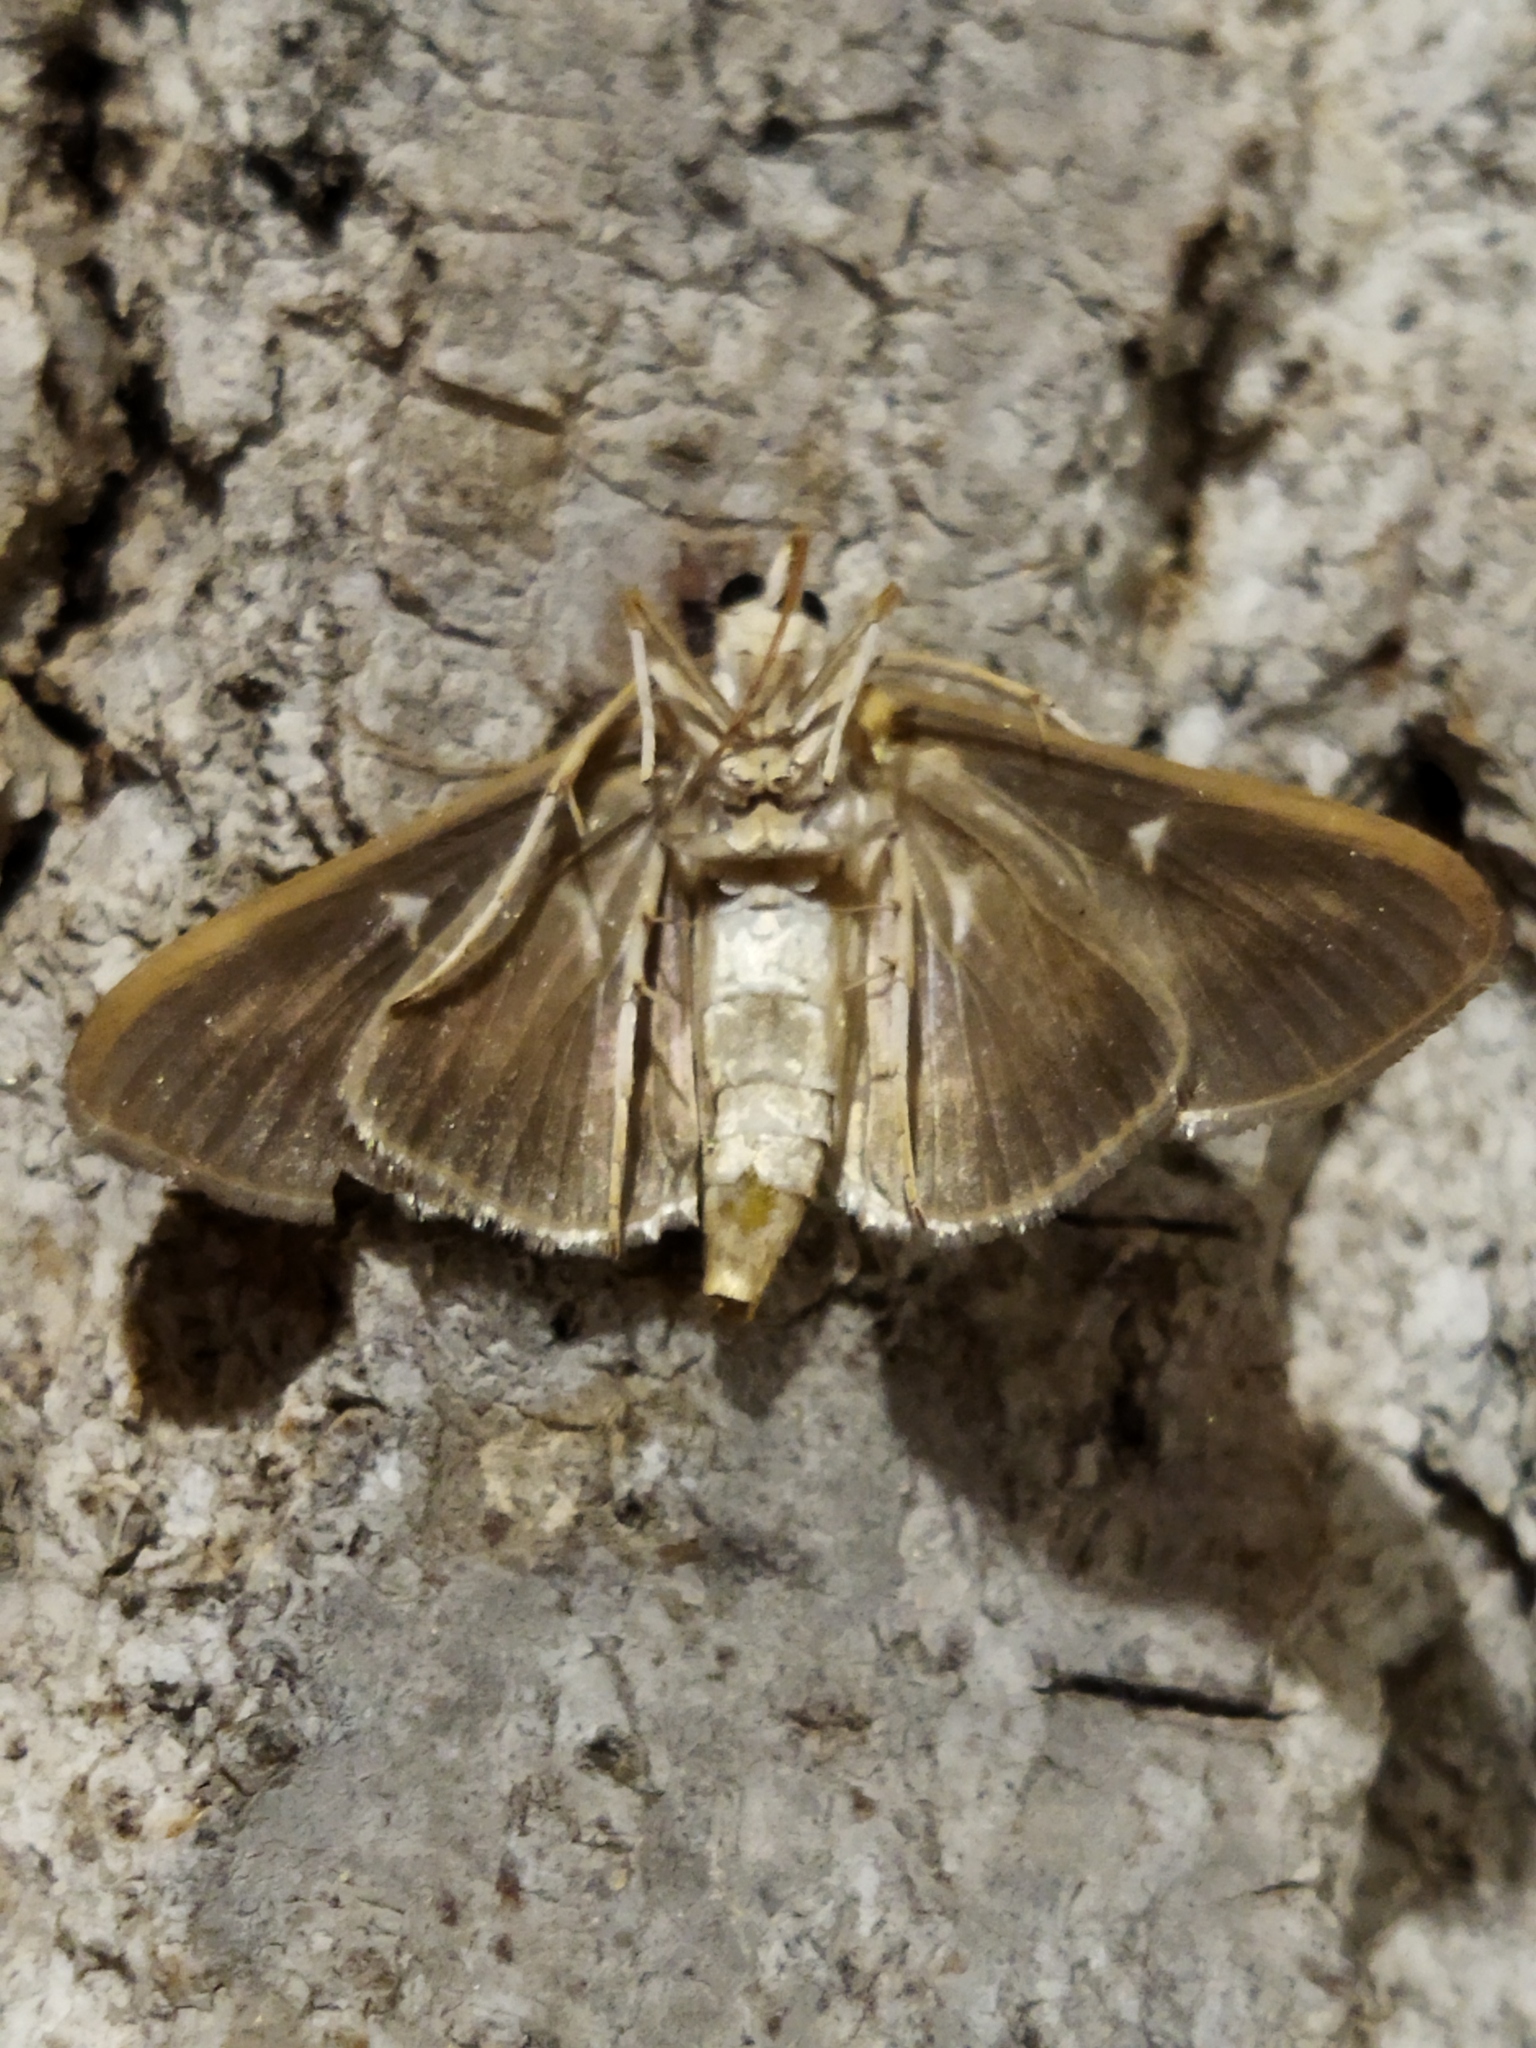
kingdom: Animalia
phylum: Arthropoda
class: Insecta
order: Lepidoptera
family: Crambidae
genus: Cydalima
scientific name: Cydalima perspectalis
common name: Box tree moth
